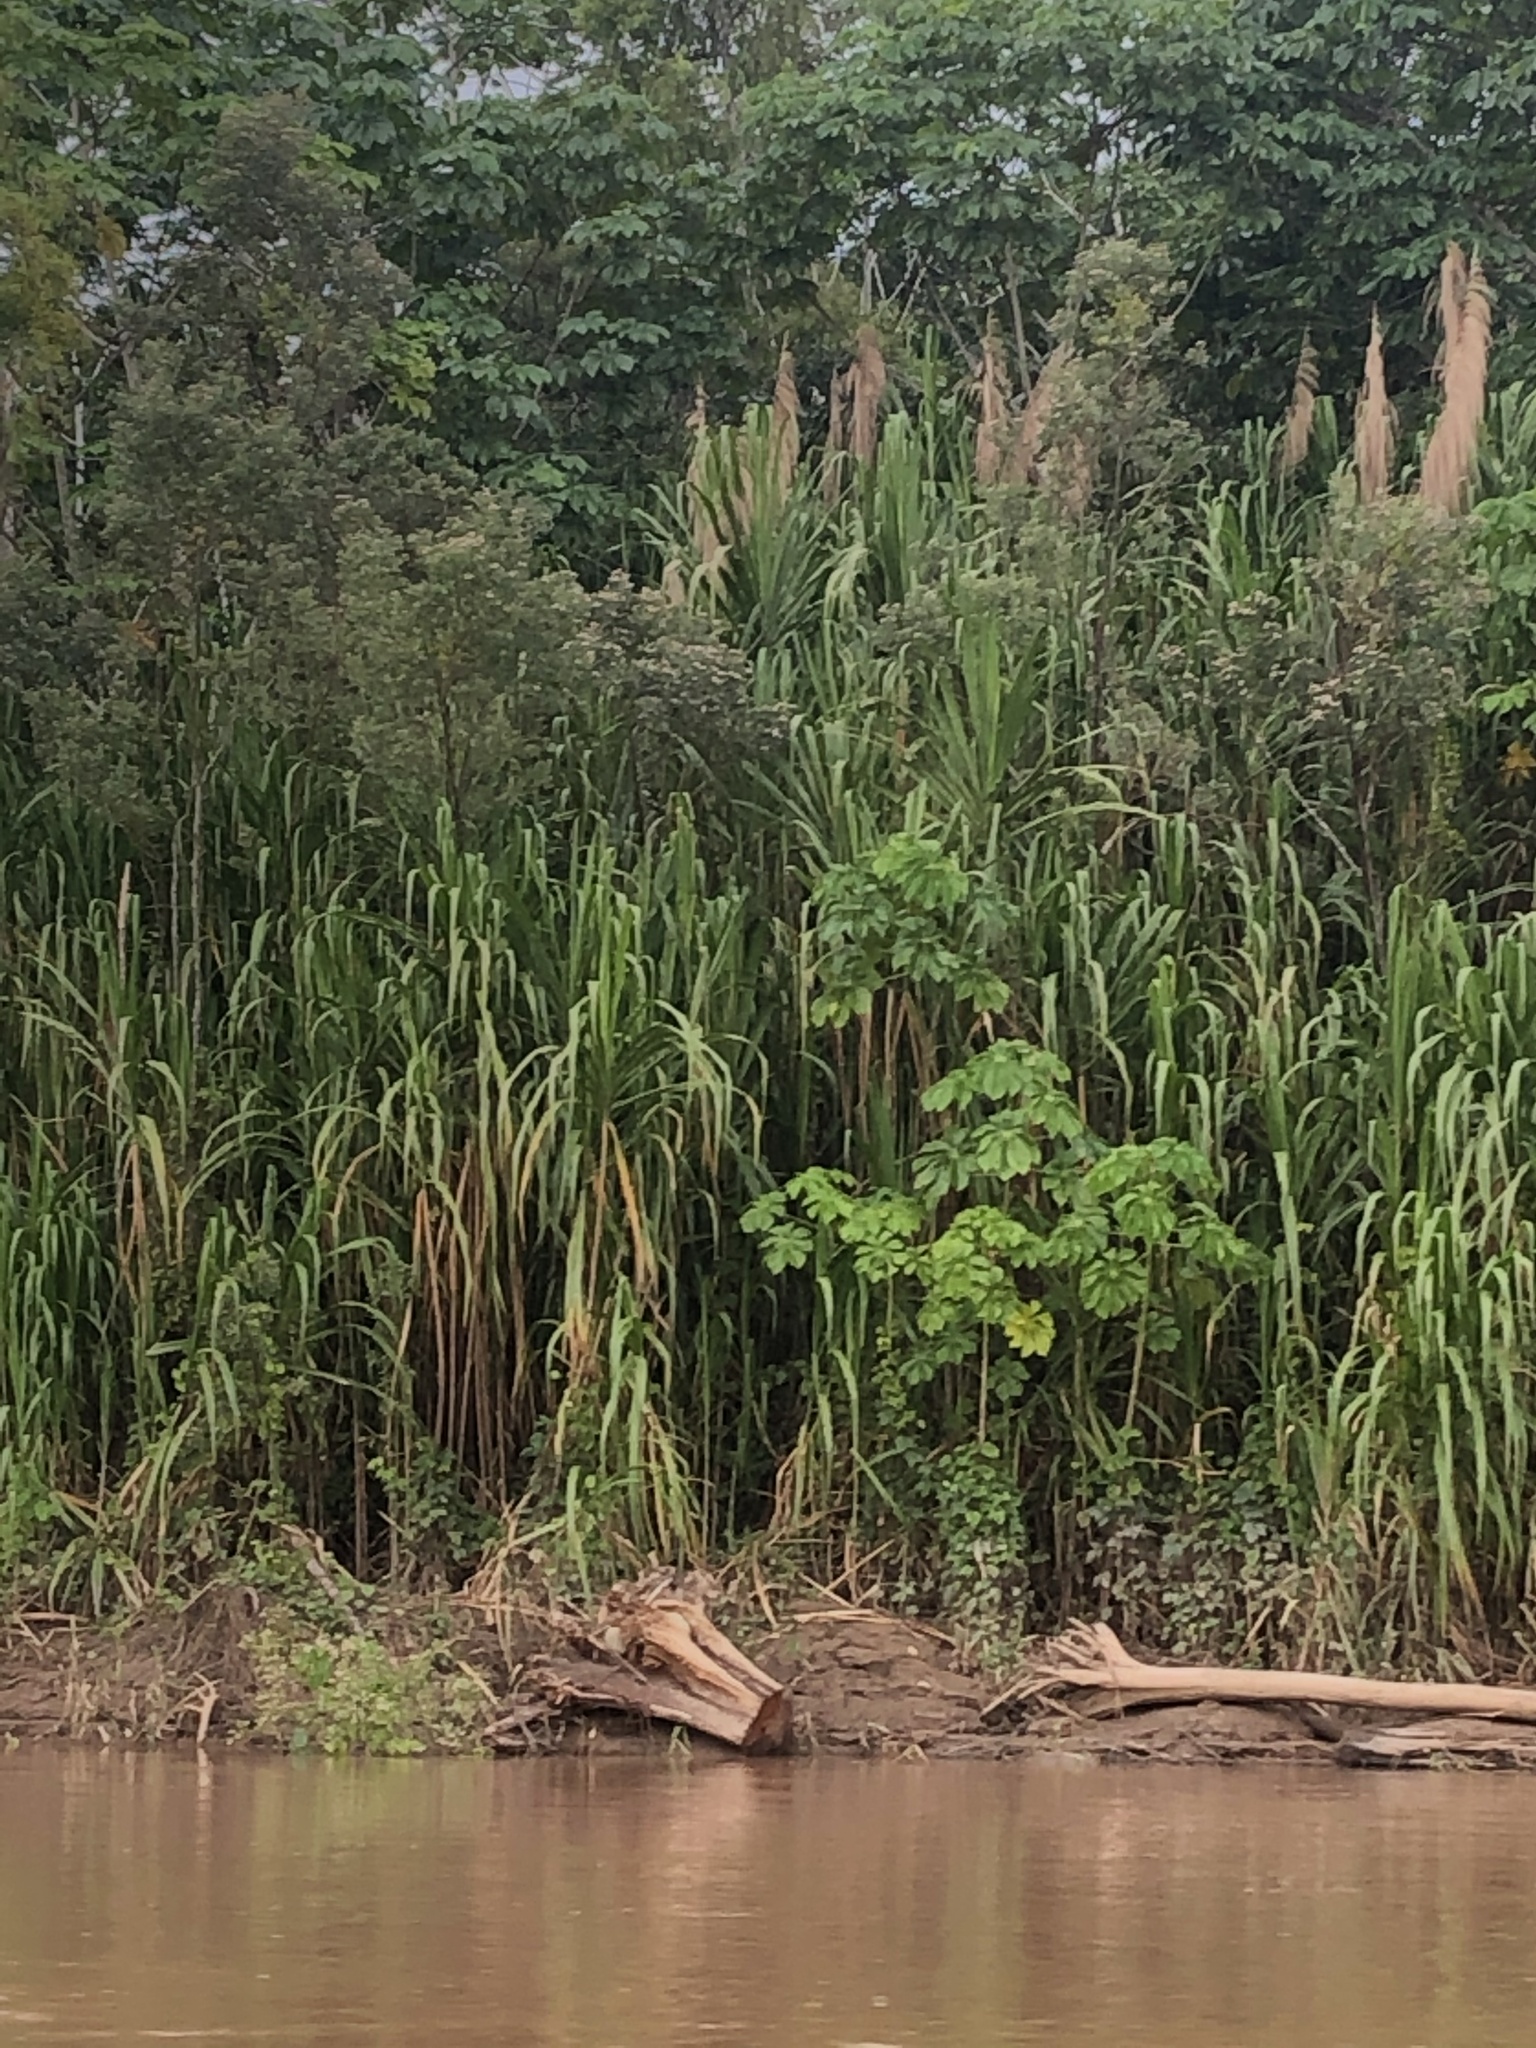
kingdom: Plantae
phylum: Tracheophyta
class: Liliopsida
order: Poales
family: Poaceae
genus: Gynerium
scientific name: Gynerium sagittatum
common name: Wild cane
